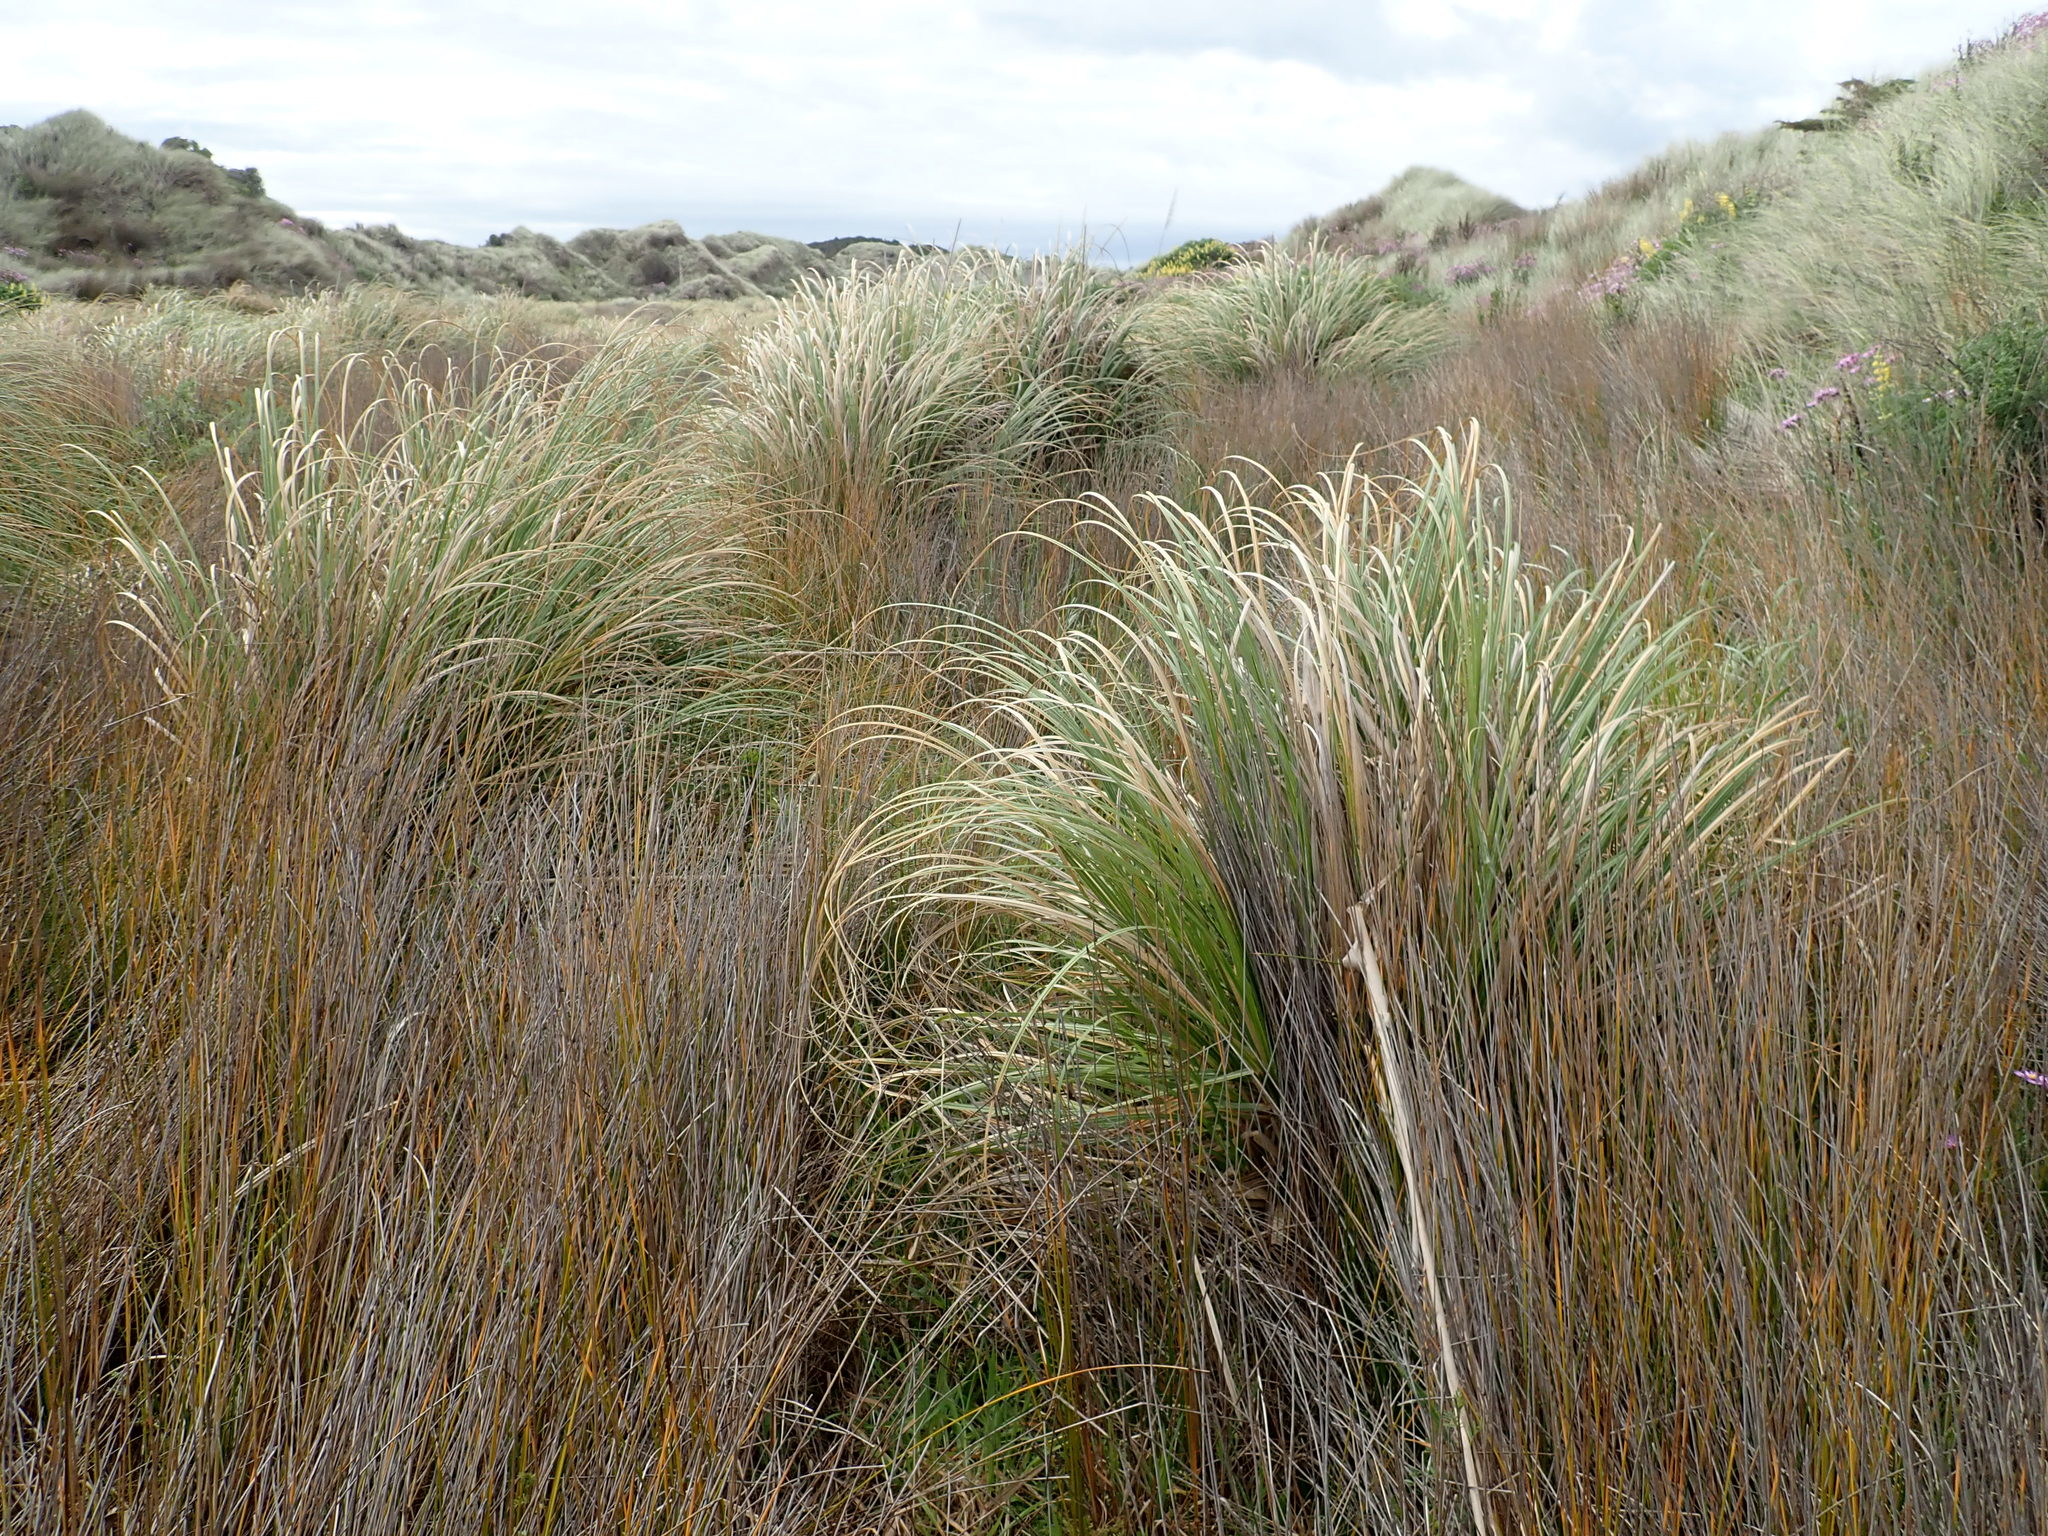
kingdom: Plantae
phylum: Tracheophyta
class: Liliopsida
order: Poales
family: Poaceae
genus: Cortaderia
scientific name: Cortaderia selloana
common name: Uruguayan pampas grass
